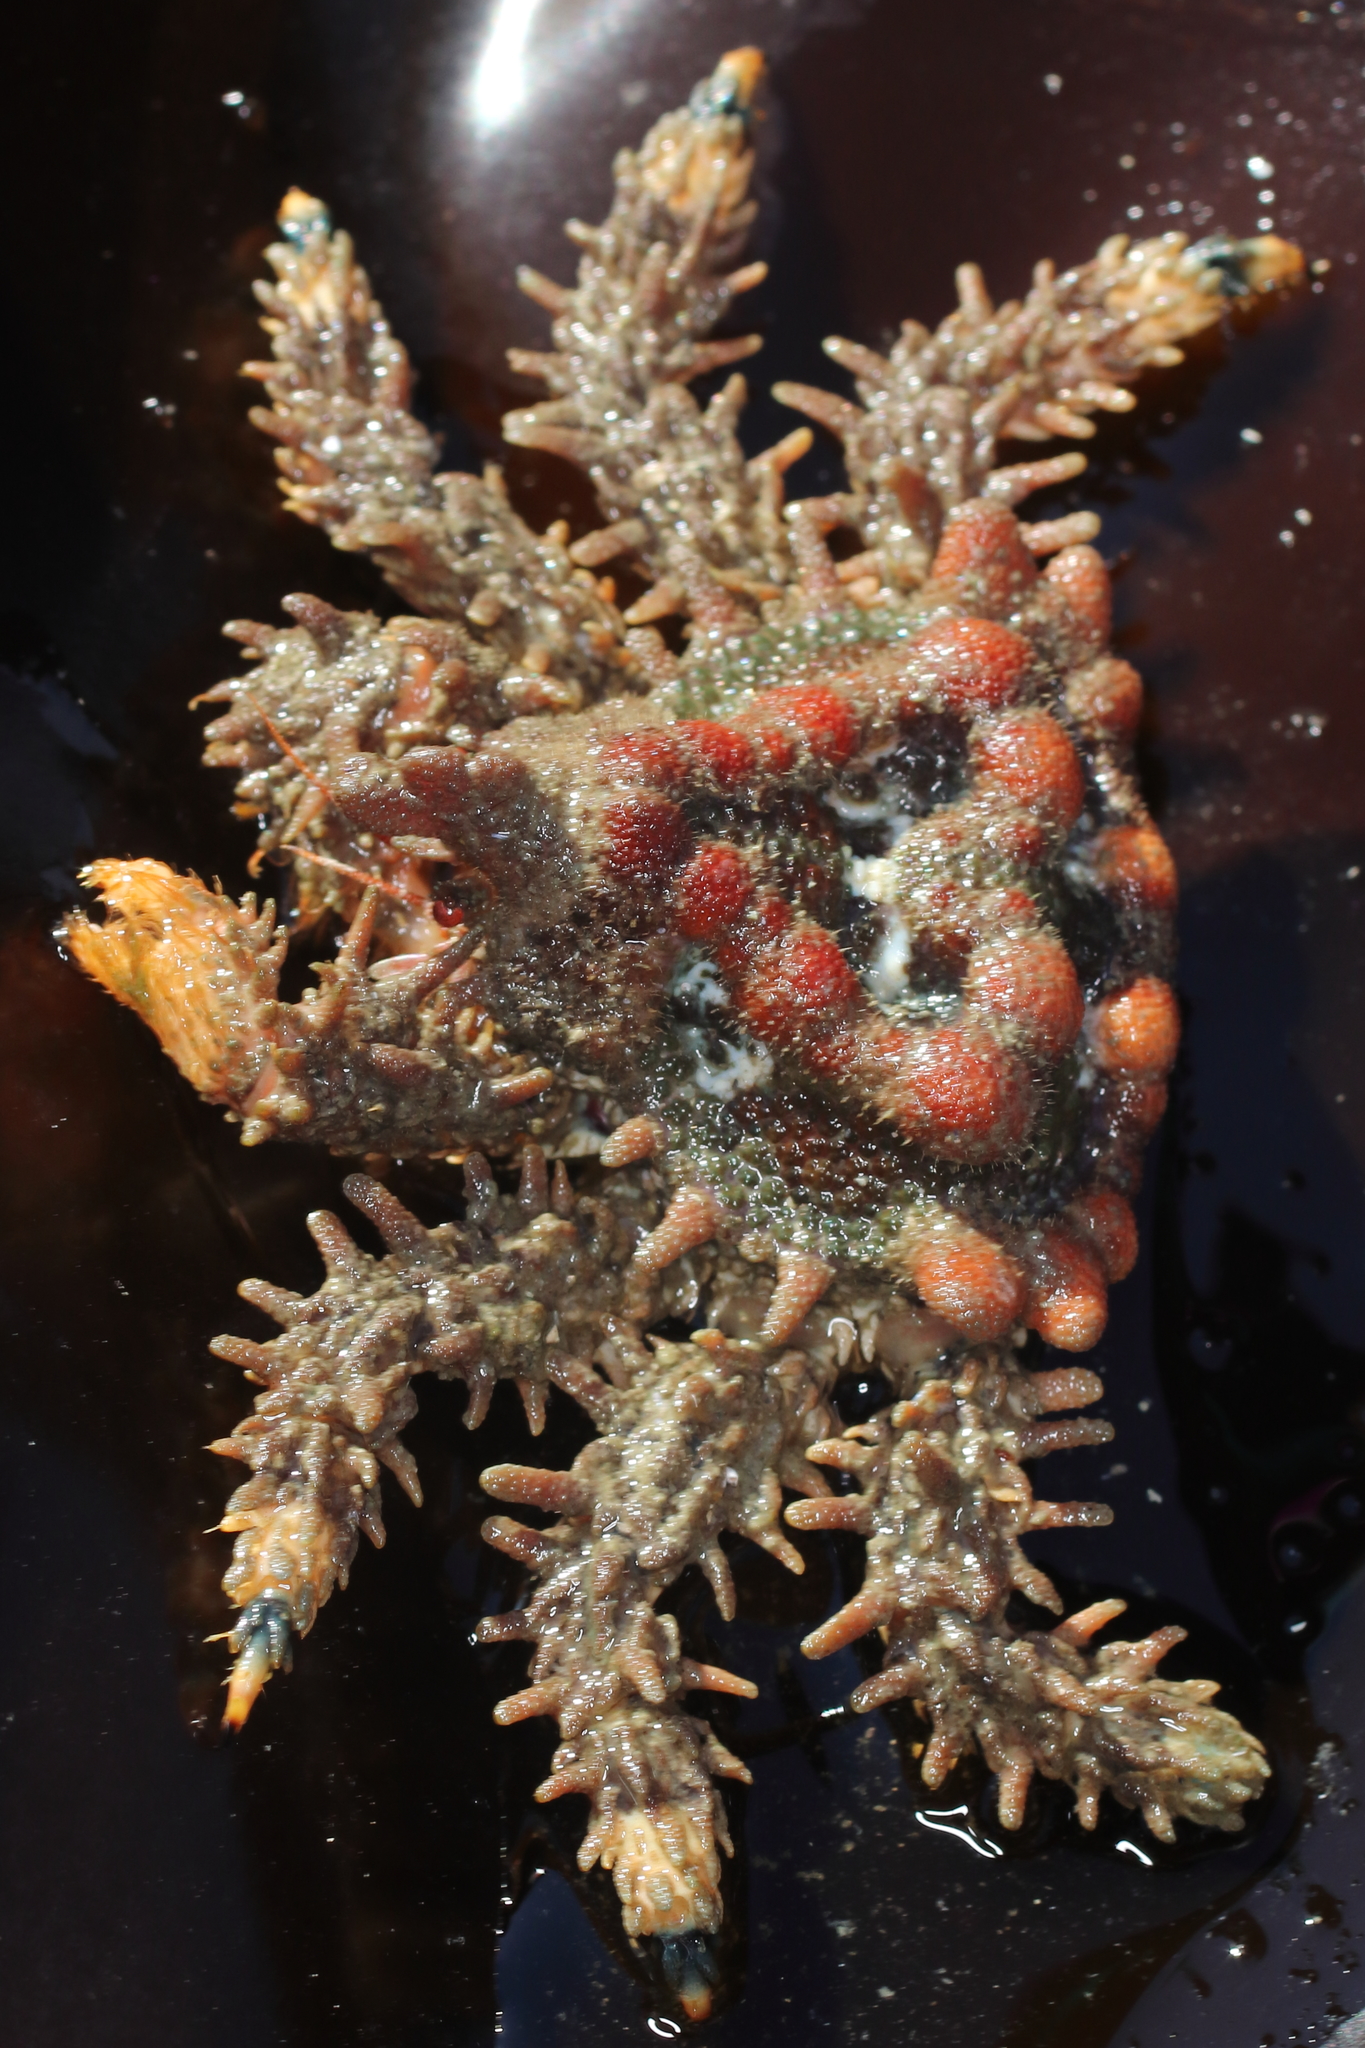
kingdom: Animalia
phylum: Arthropoda
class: Malacostraca
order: Decapoda
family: Lithodidae
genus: Phyllolithodes
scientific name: Phyllolithodes papillosus
